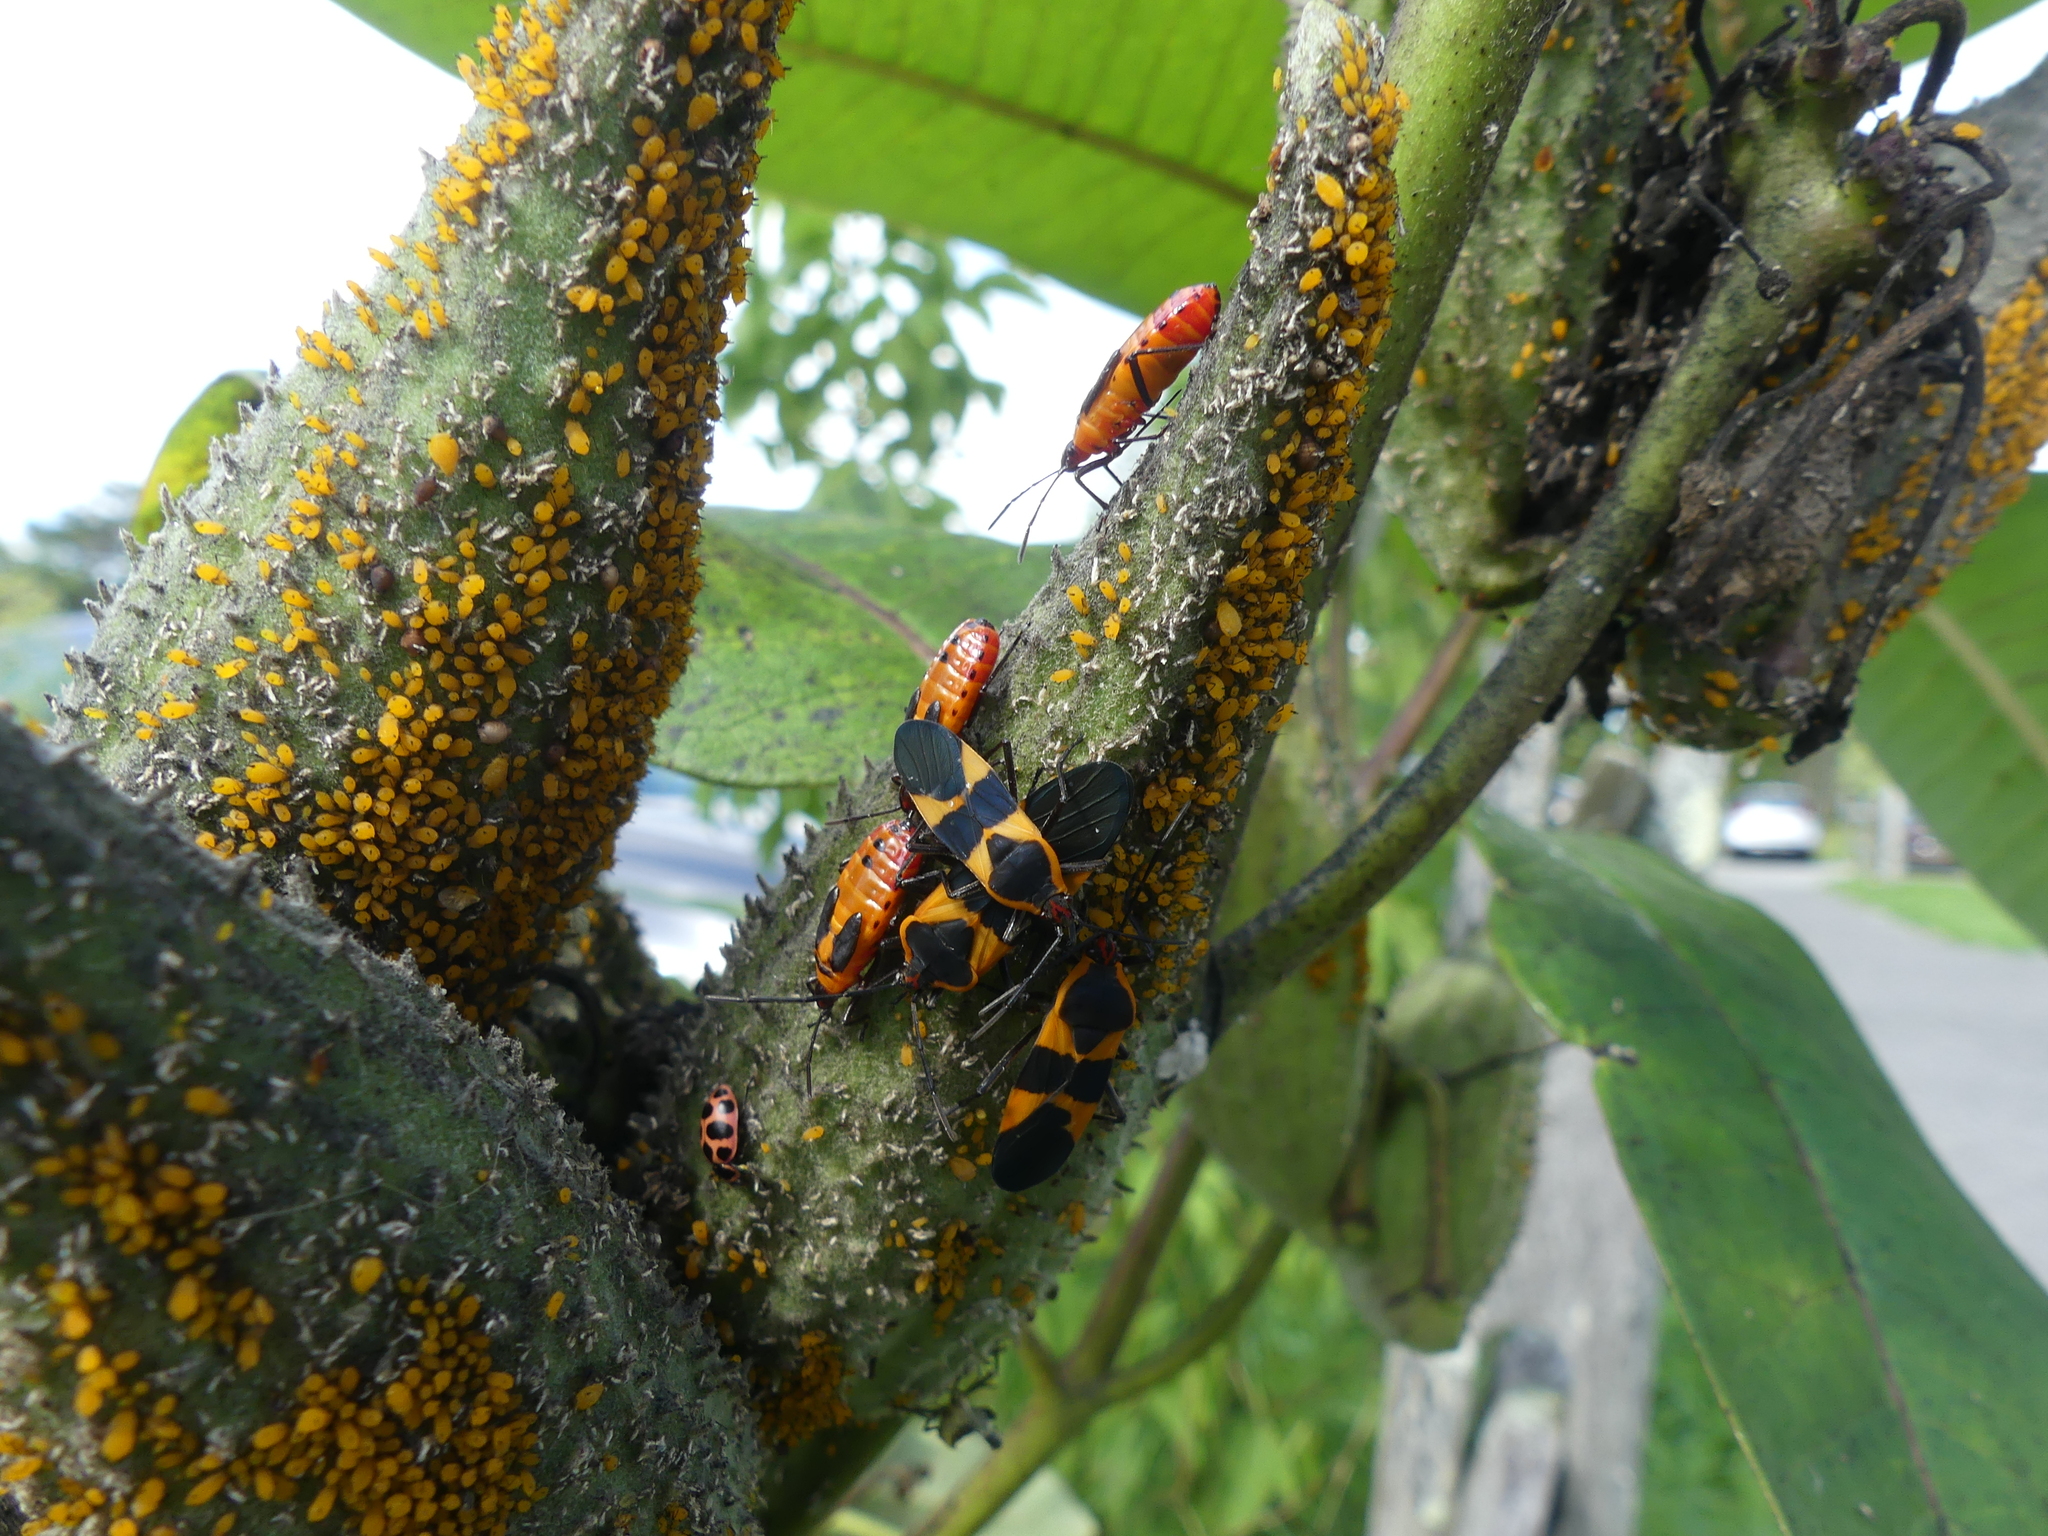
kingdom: Animalia
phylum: Arthropoda
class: Insecta
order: Coleoptera
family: Coccinellidae
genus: Coleomegilla
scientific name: Coleomegilla maculata
